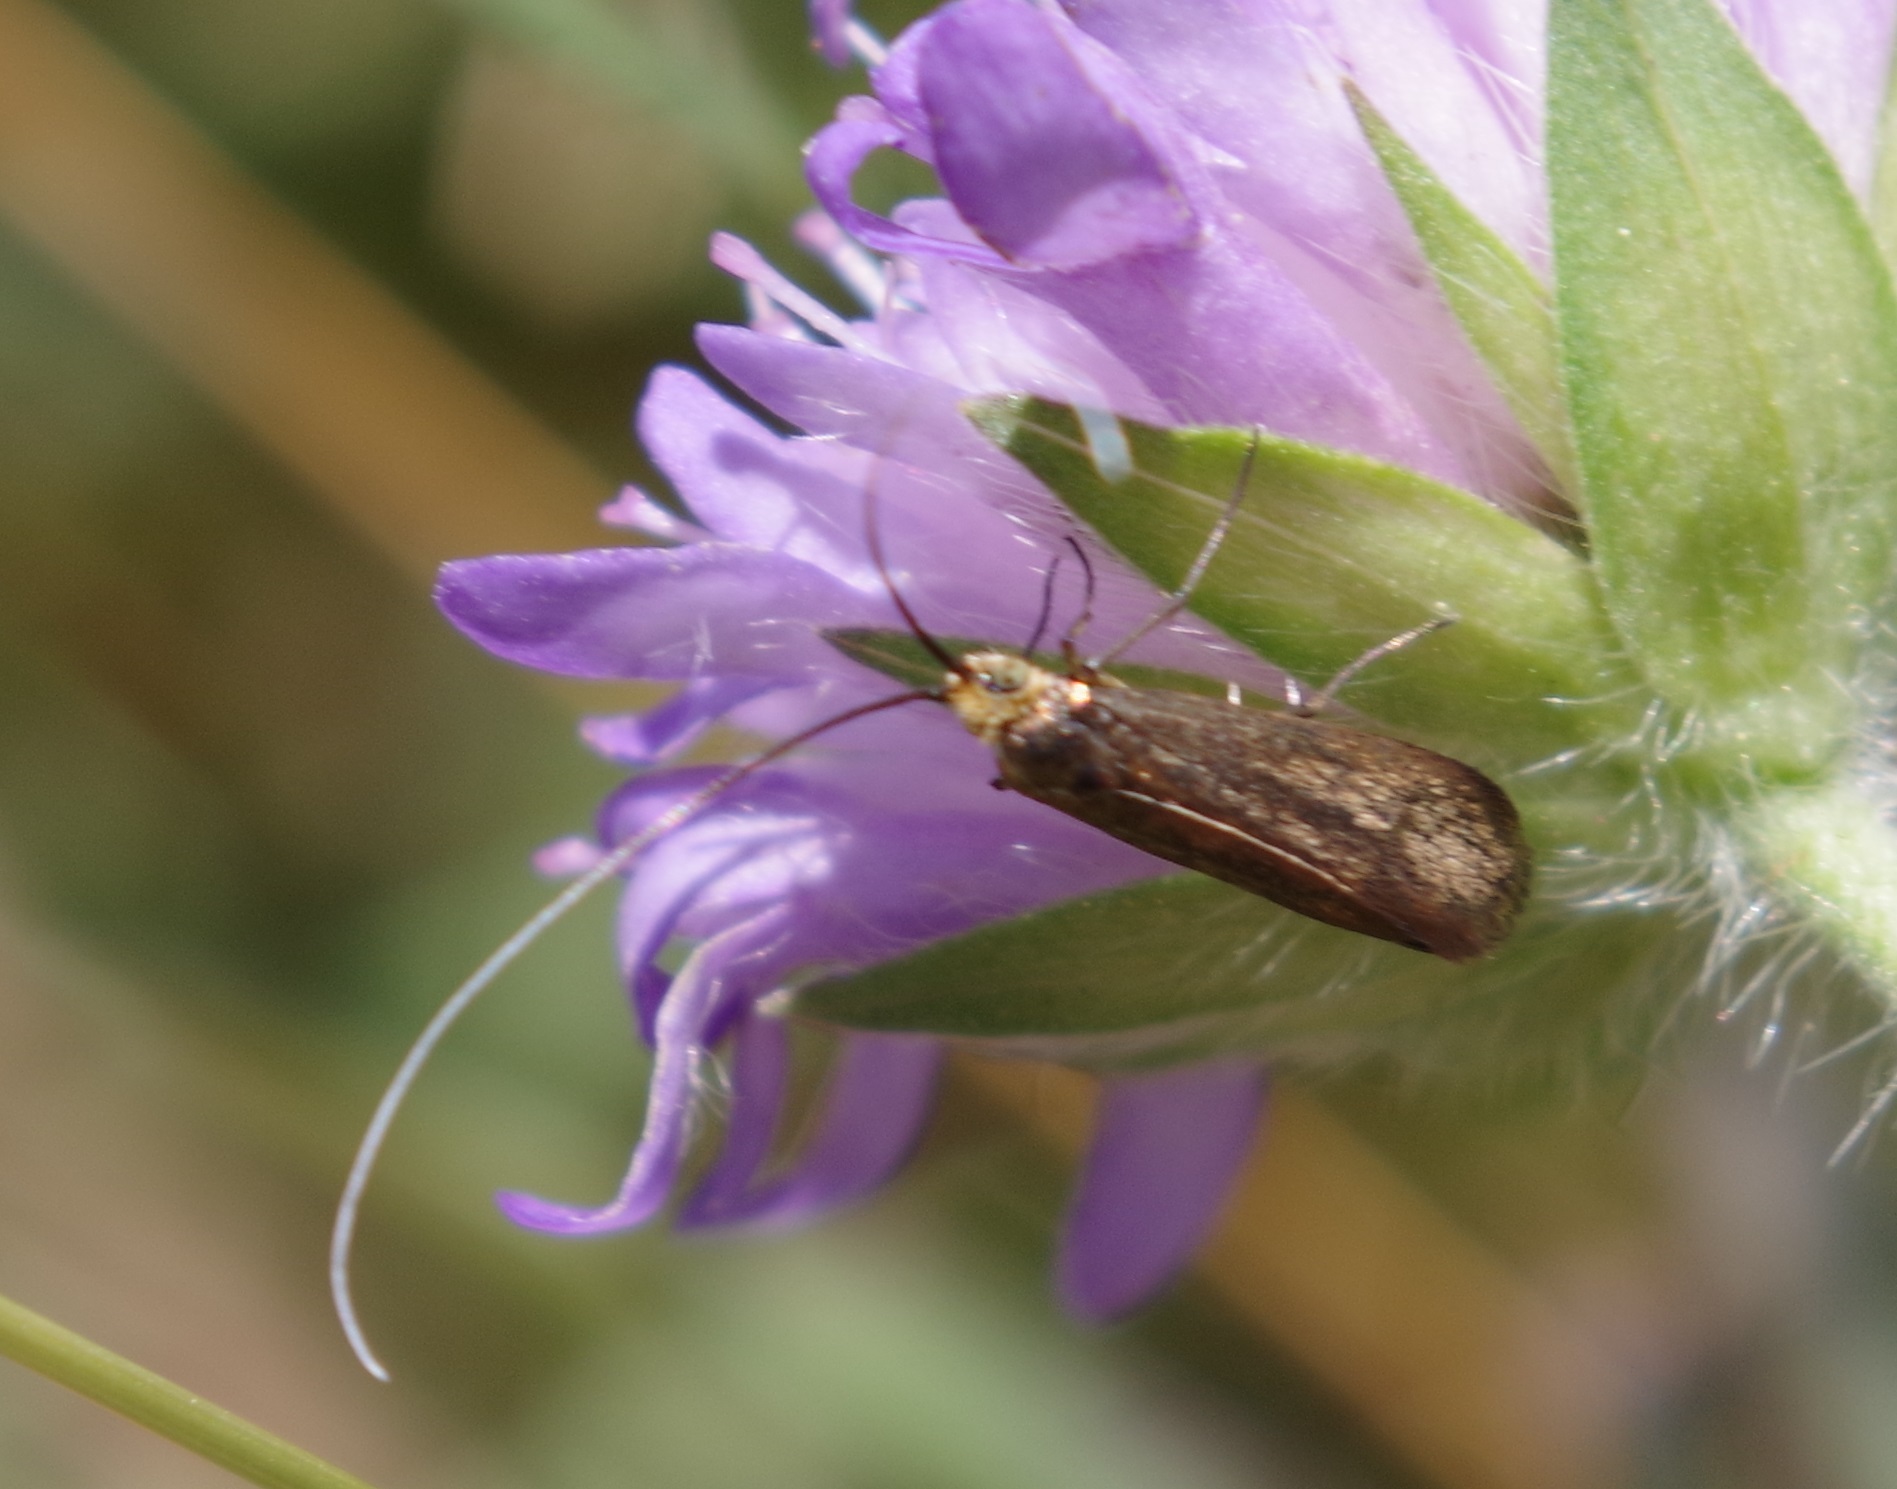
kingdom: Animalia
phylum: Arthropoda
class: Insecta
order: Lepidoptera
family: Adelidae
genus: Nemophora
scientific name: Nemophora metallica
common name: Brassy long-horn
